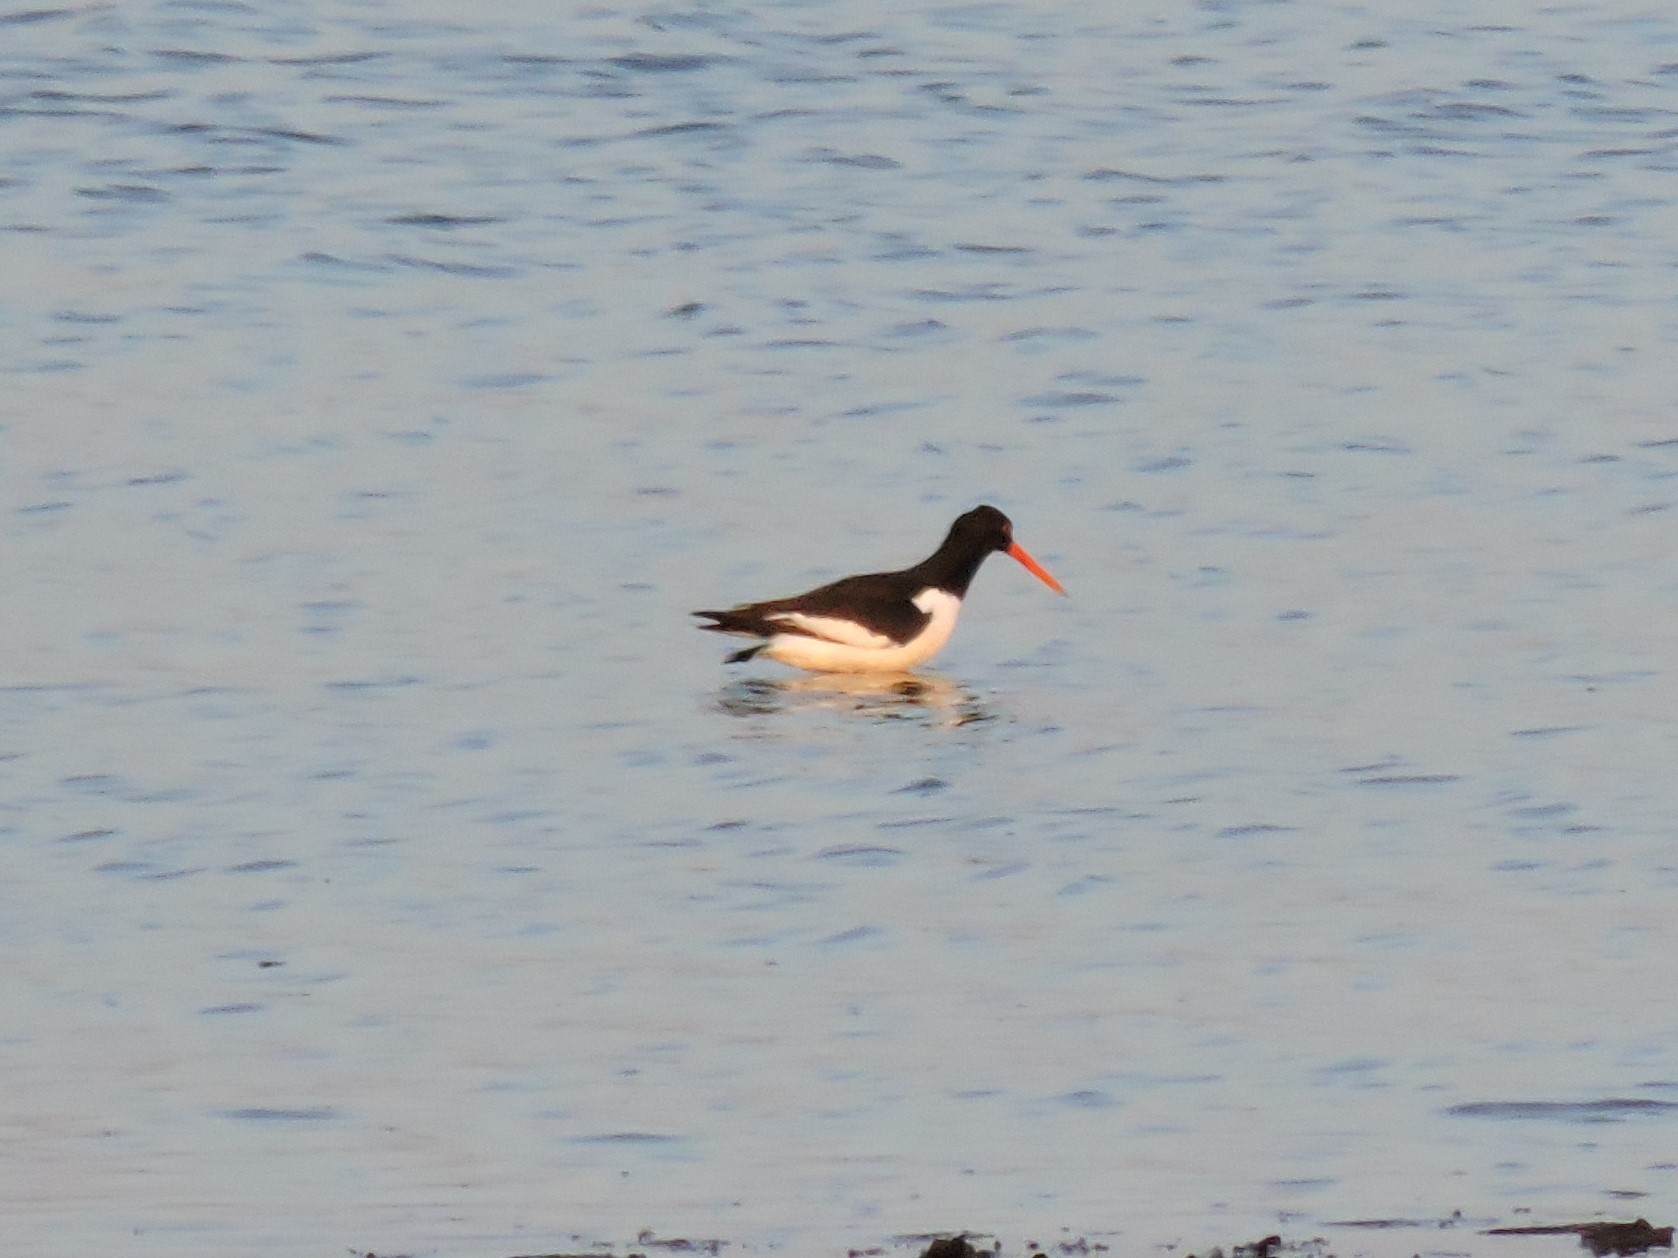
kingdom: Animalia
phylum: Chordata
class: Aves
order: Charadriiformes
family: Haematopodidae
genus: Haematopus
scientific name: Haematopus ostralegus
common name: Eurasian oystercatcher
